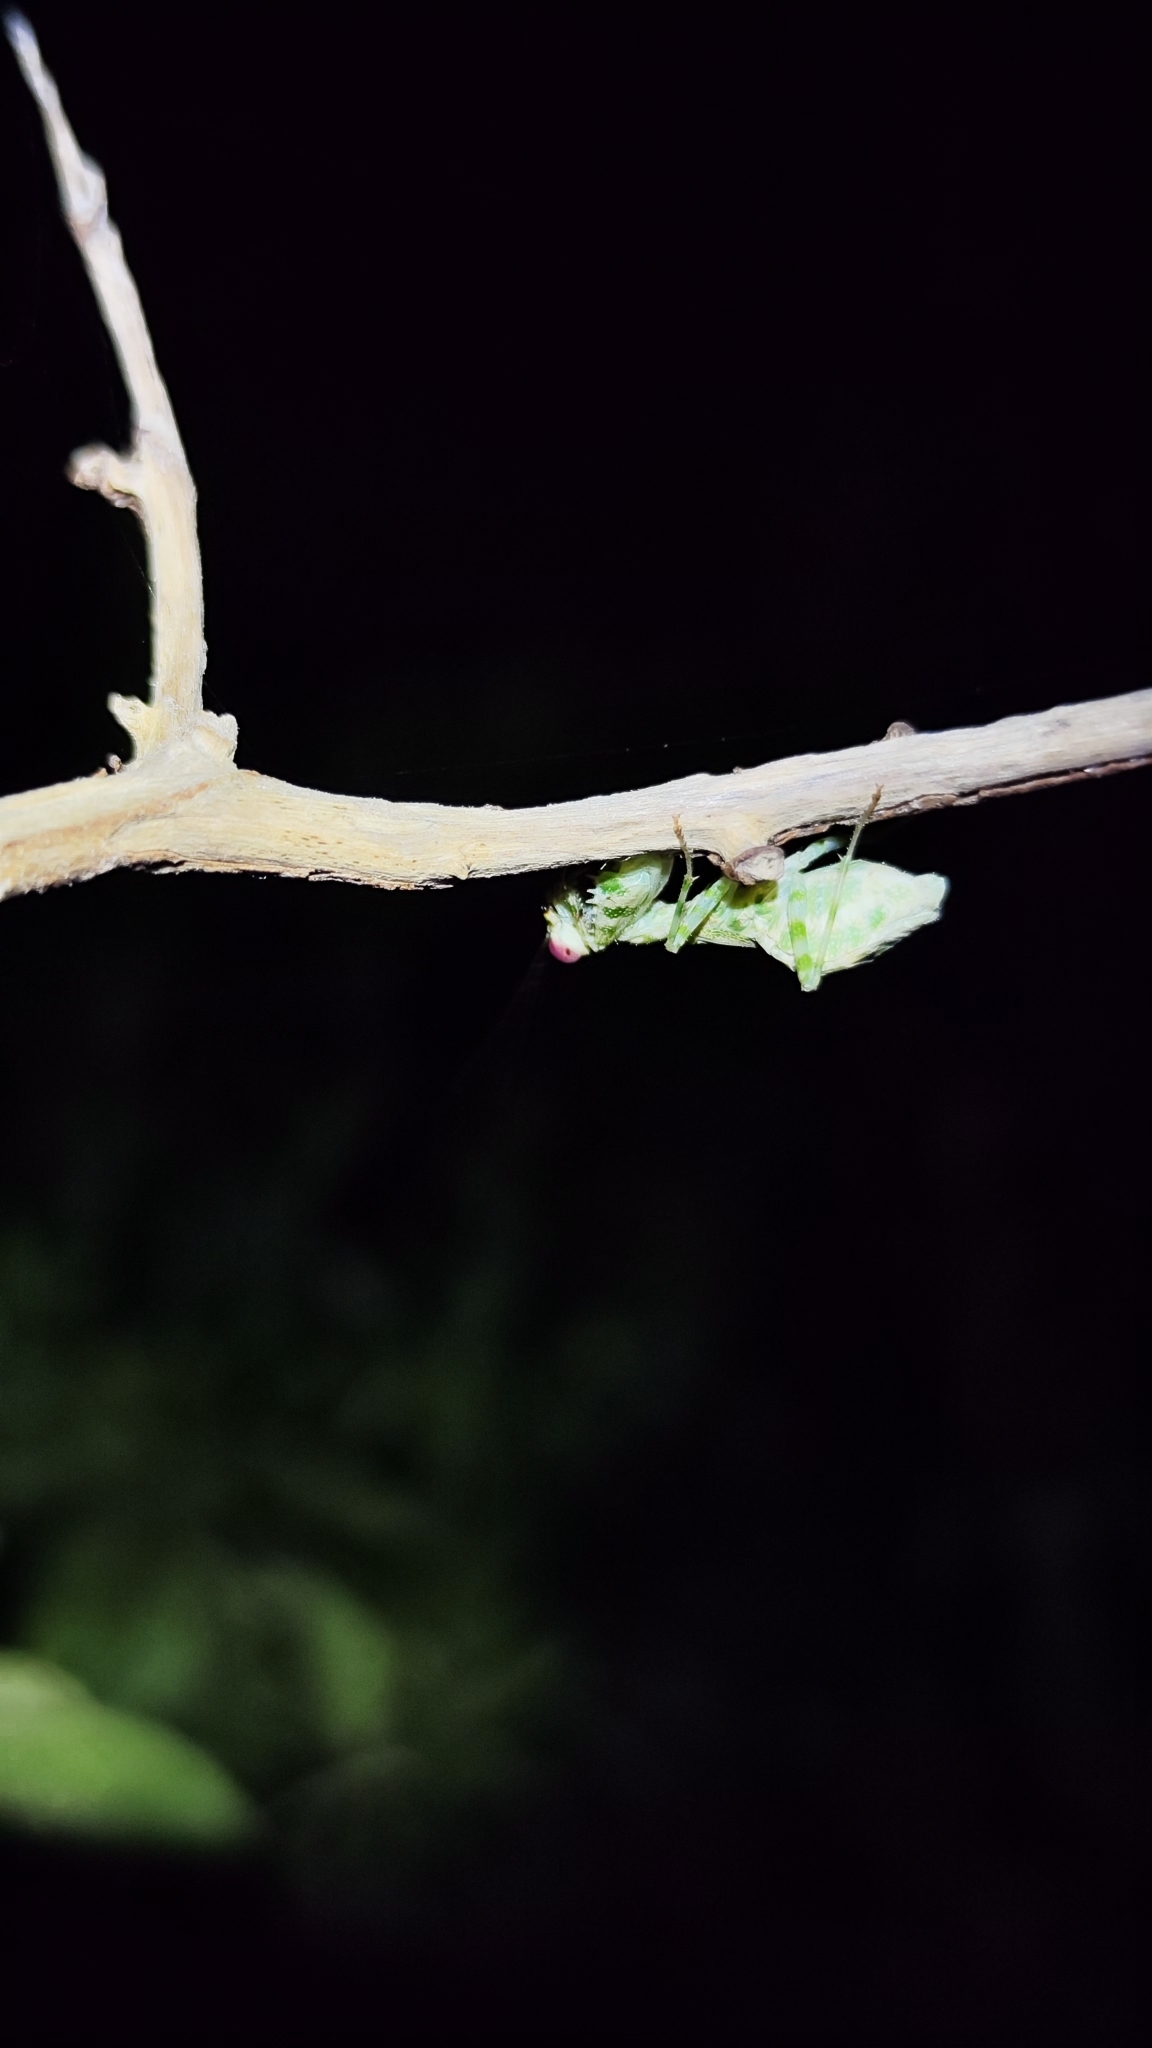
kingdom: Animalia
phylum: Arthropoda
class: Insecta
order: Mantodea
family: Acanthopidae
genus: Acontista
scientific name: Acontista
